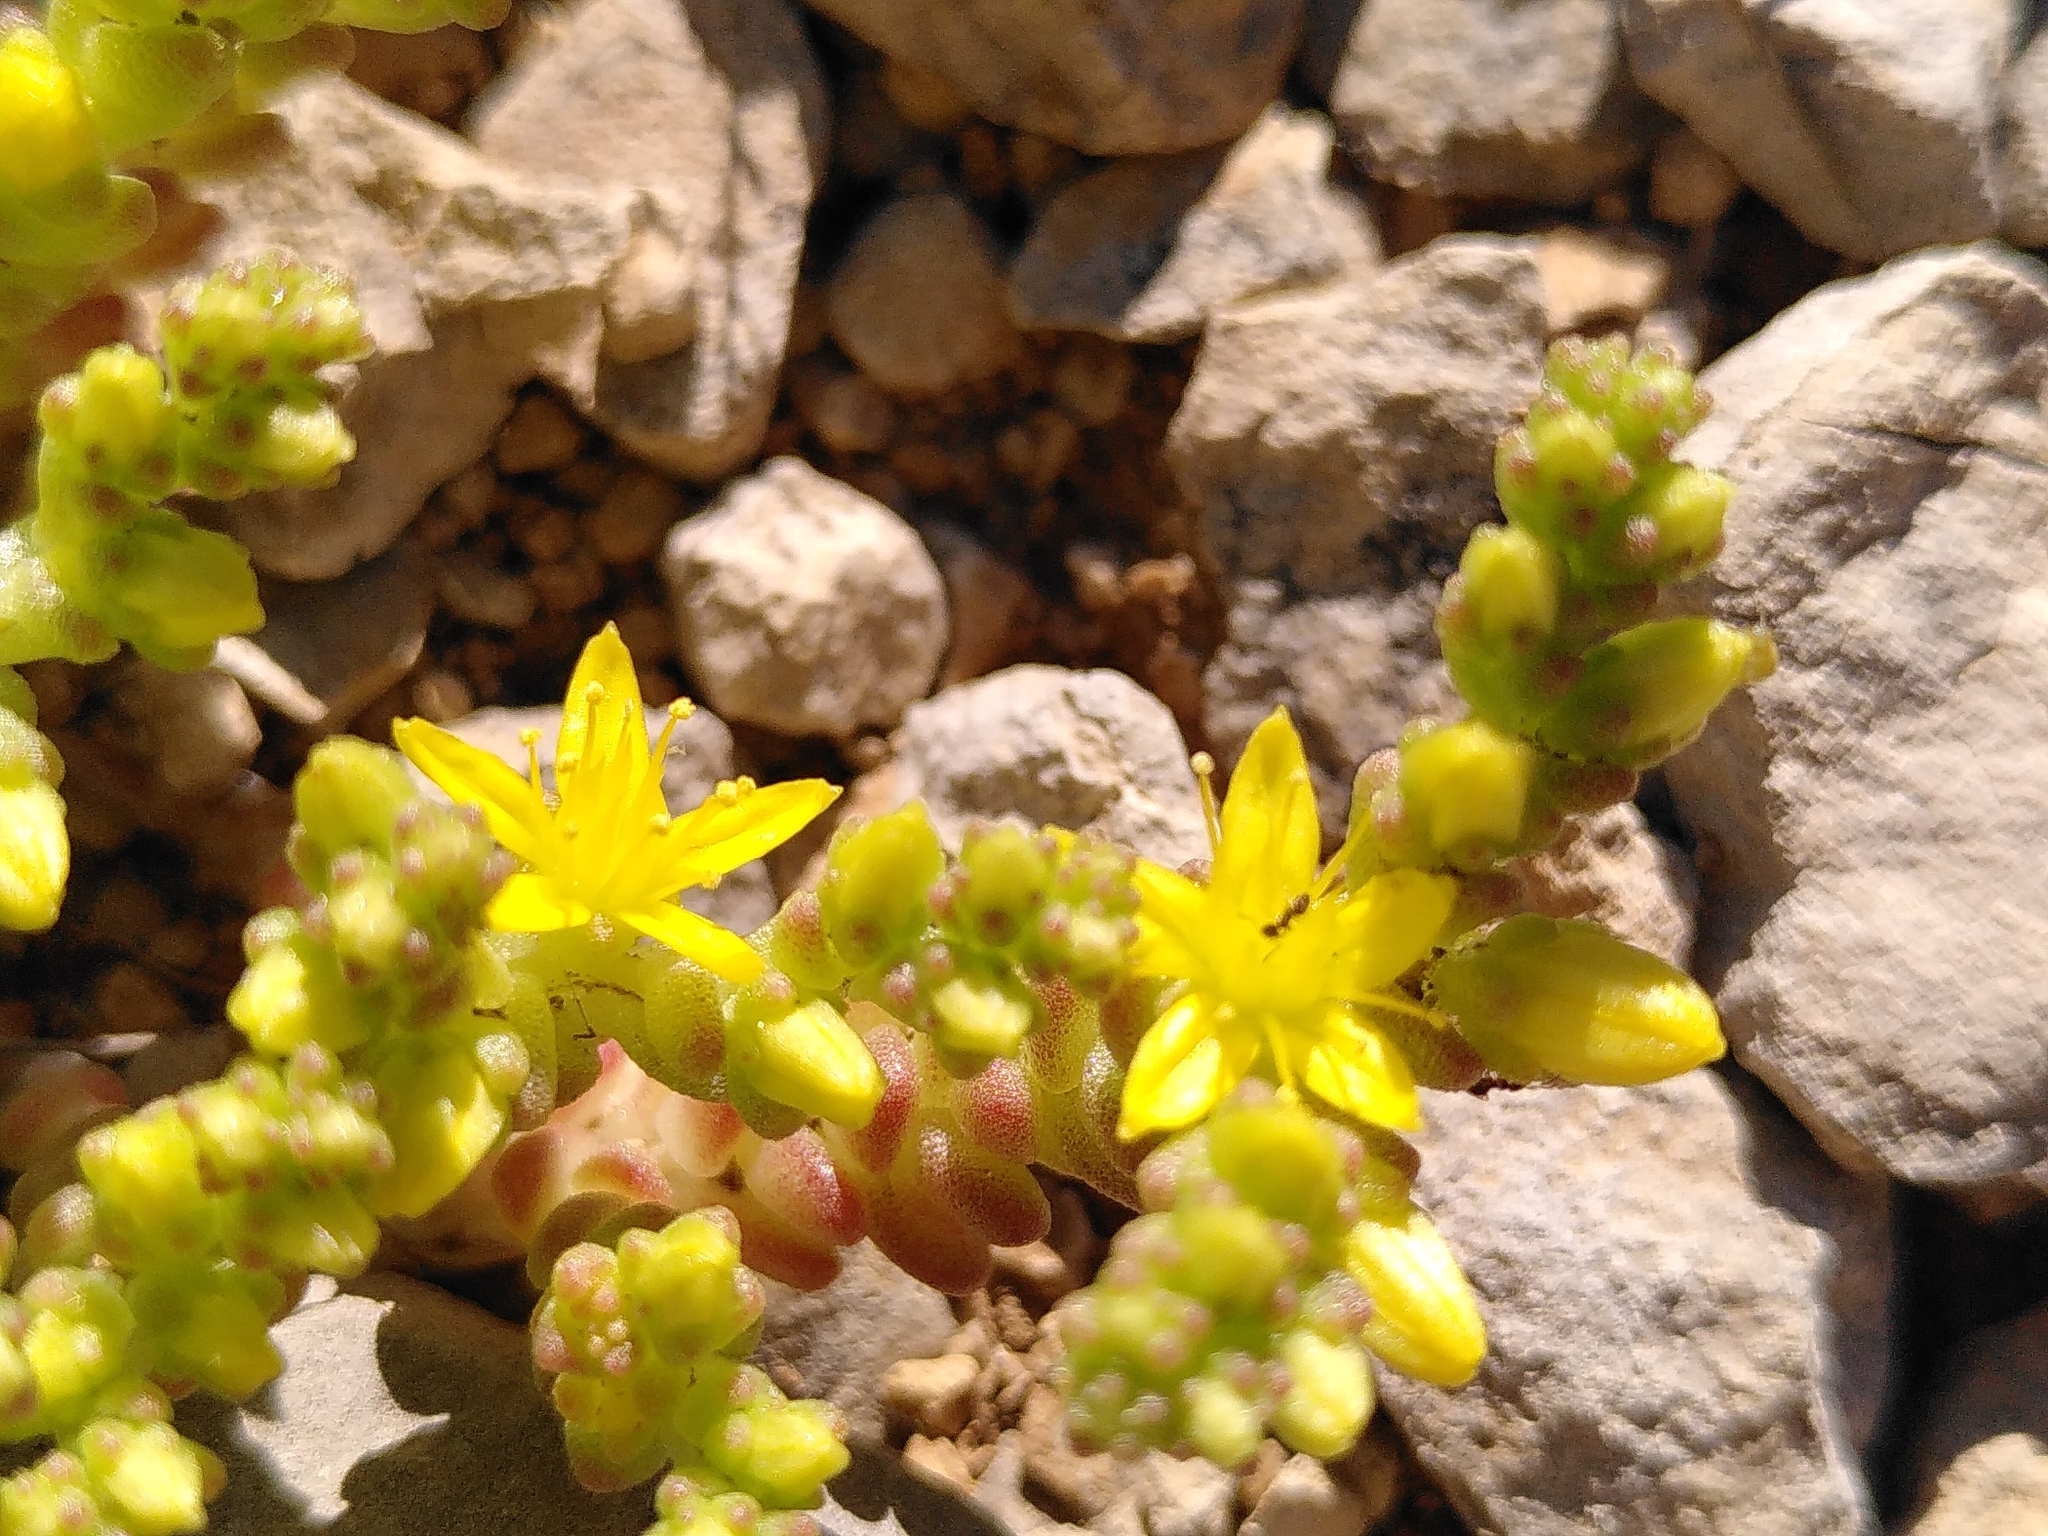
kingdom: Plantae
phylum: Tracheophyta
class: Magnoliopsida
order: Saxifragales
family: Crassulaceae
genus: Sedum
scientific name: Sedum acre
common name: Biting stonecrop
